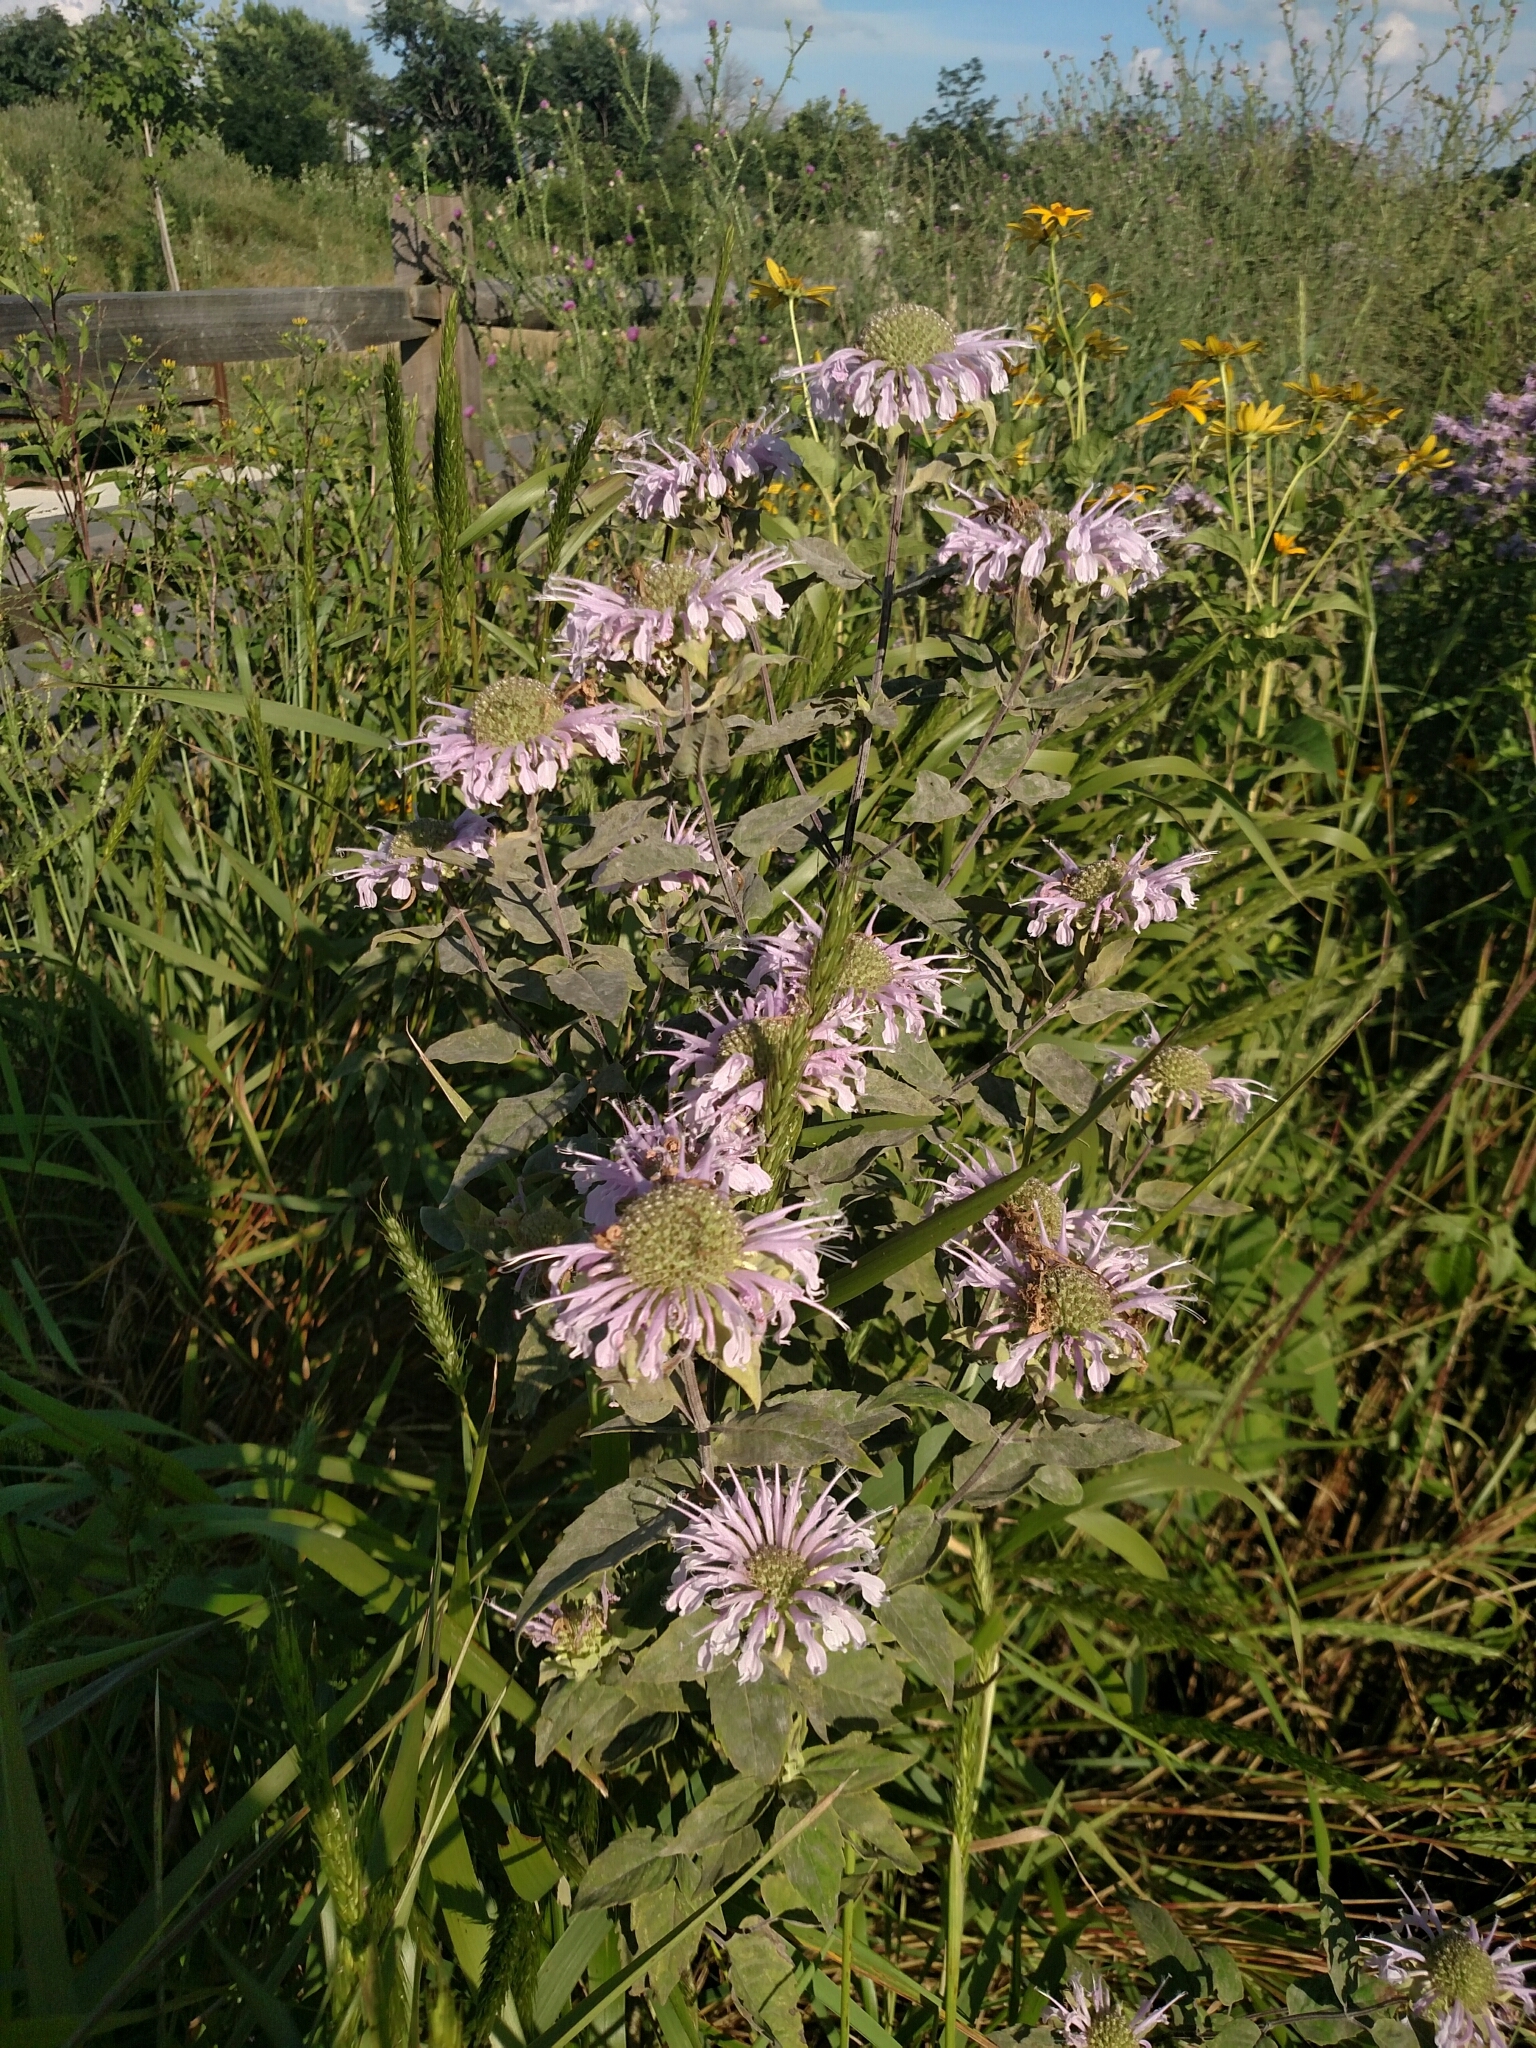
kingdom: Plantae
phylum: Tracheophyta
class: Magnoliopsida
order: Lamiales
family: Lamiaceae
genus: Monarda
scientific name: Monarda fistulosa
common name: Purple beebalm
